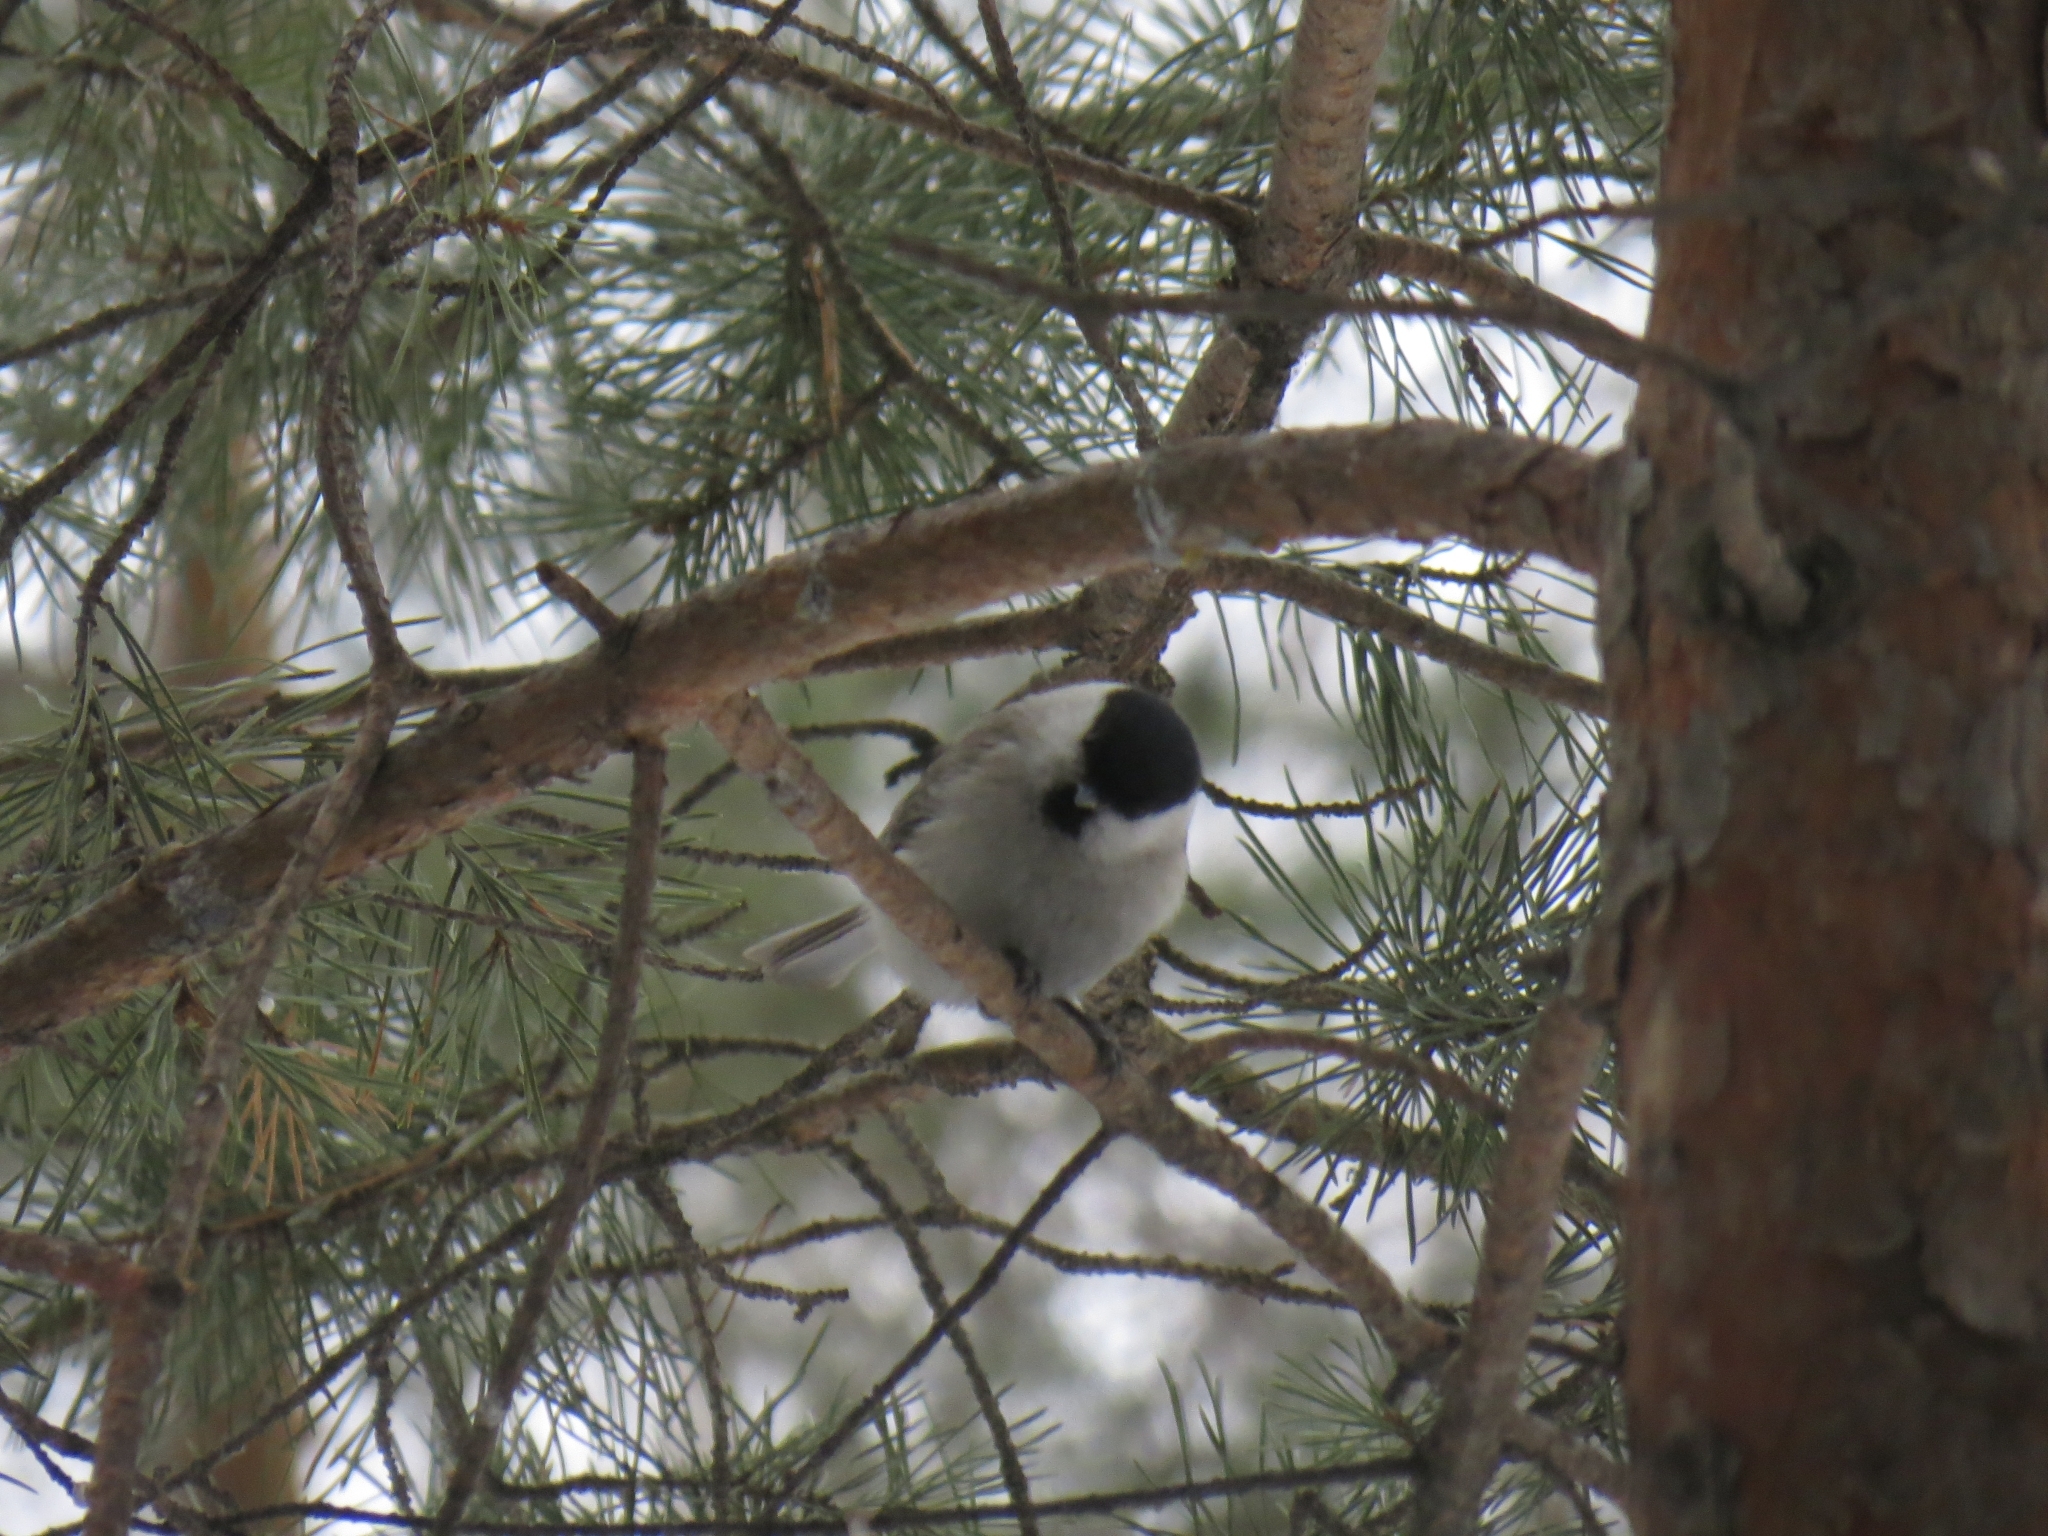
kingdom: Animalia
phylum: Chordata
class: Aves
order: Passeriformes
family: Paridae
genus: Poecile
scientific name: Poecile palustris
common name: Marsh tit
